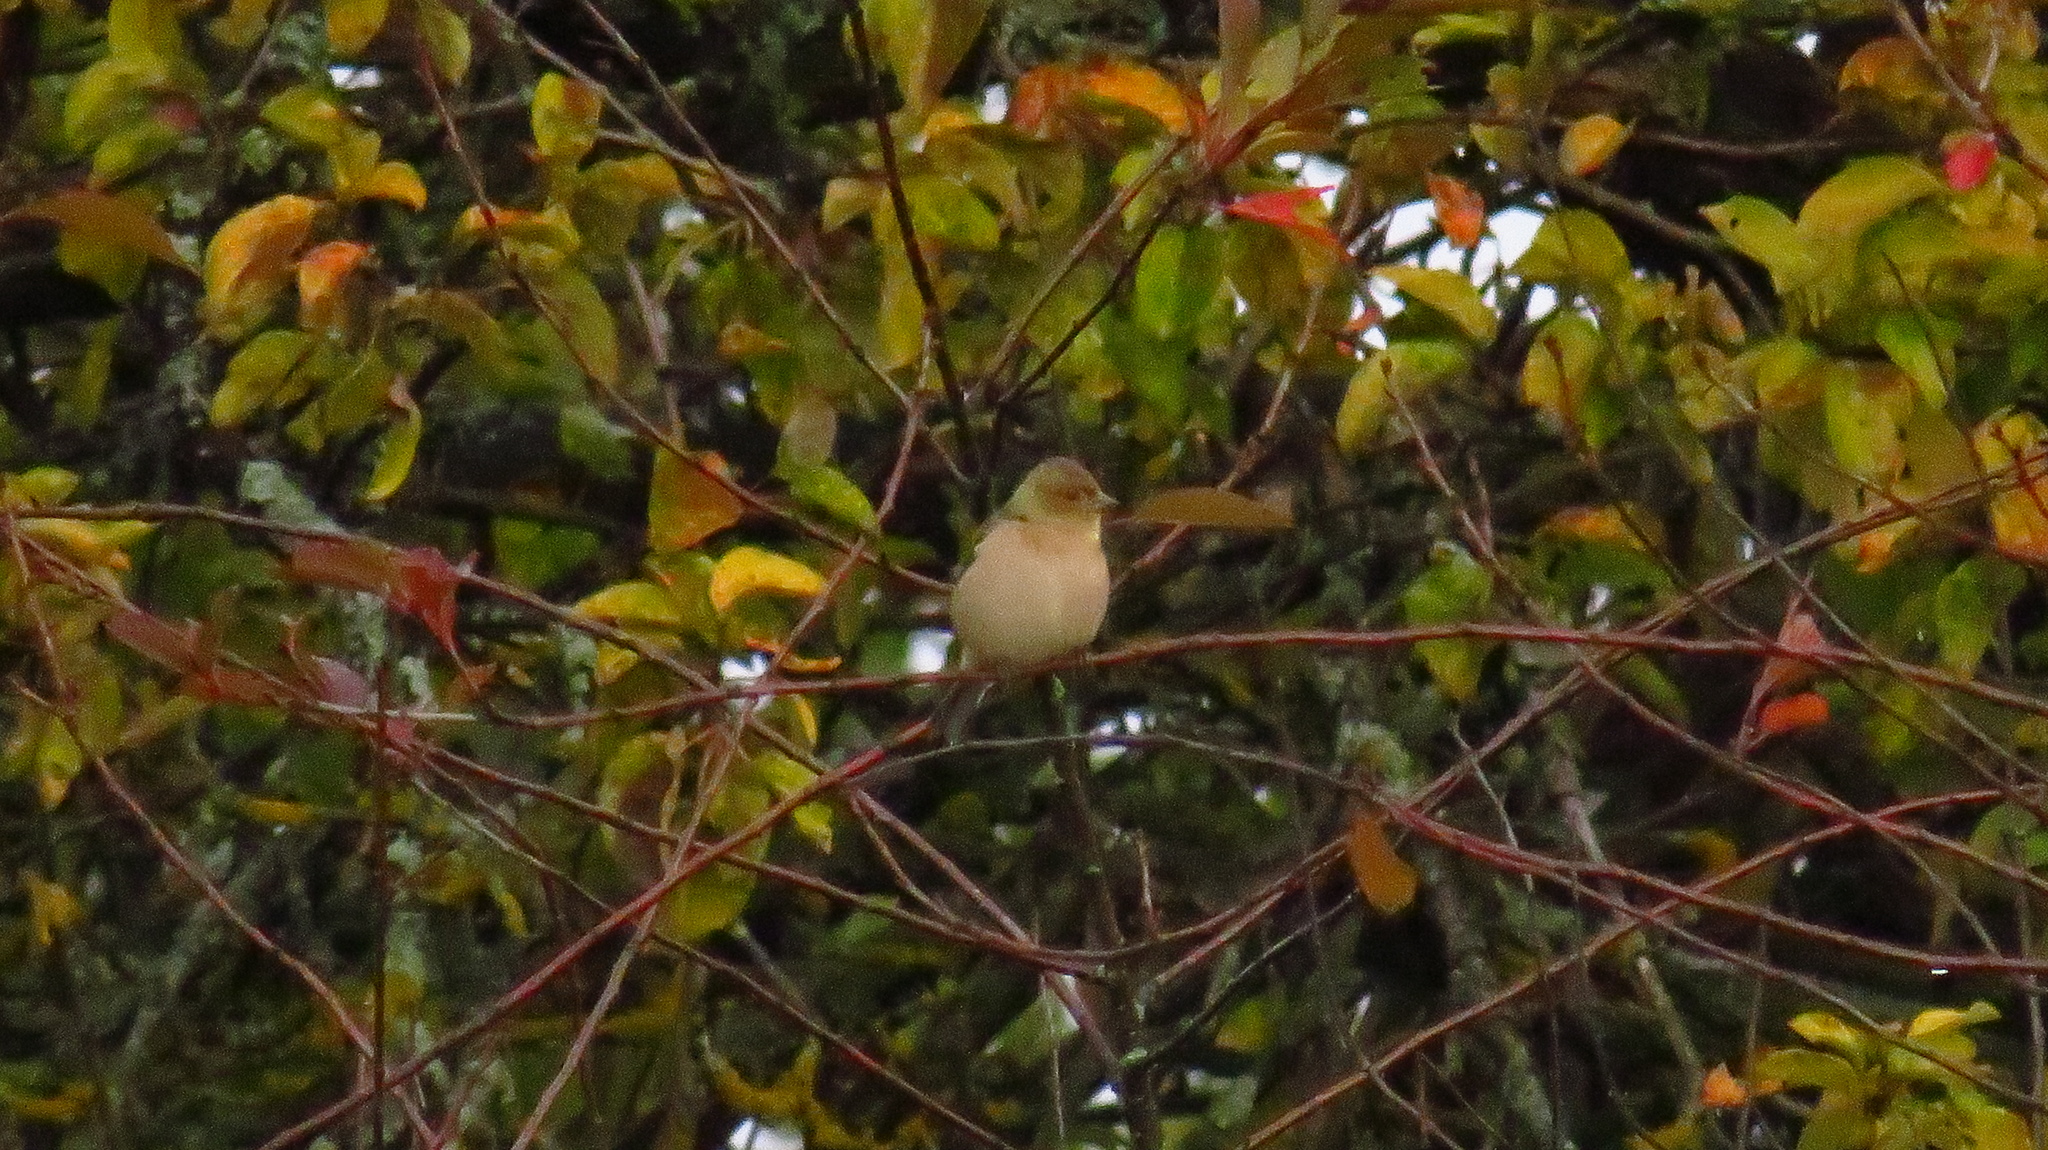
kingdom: Animalia
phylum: Chordata
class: Aves
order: Passeriformes
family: Fringillidae
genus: Fringilla
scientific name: Fringilla coelebs
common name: Common chaffinch
